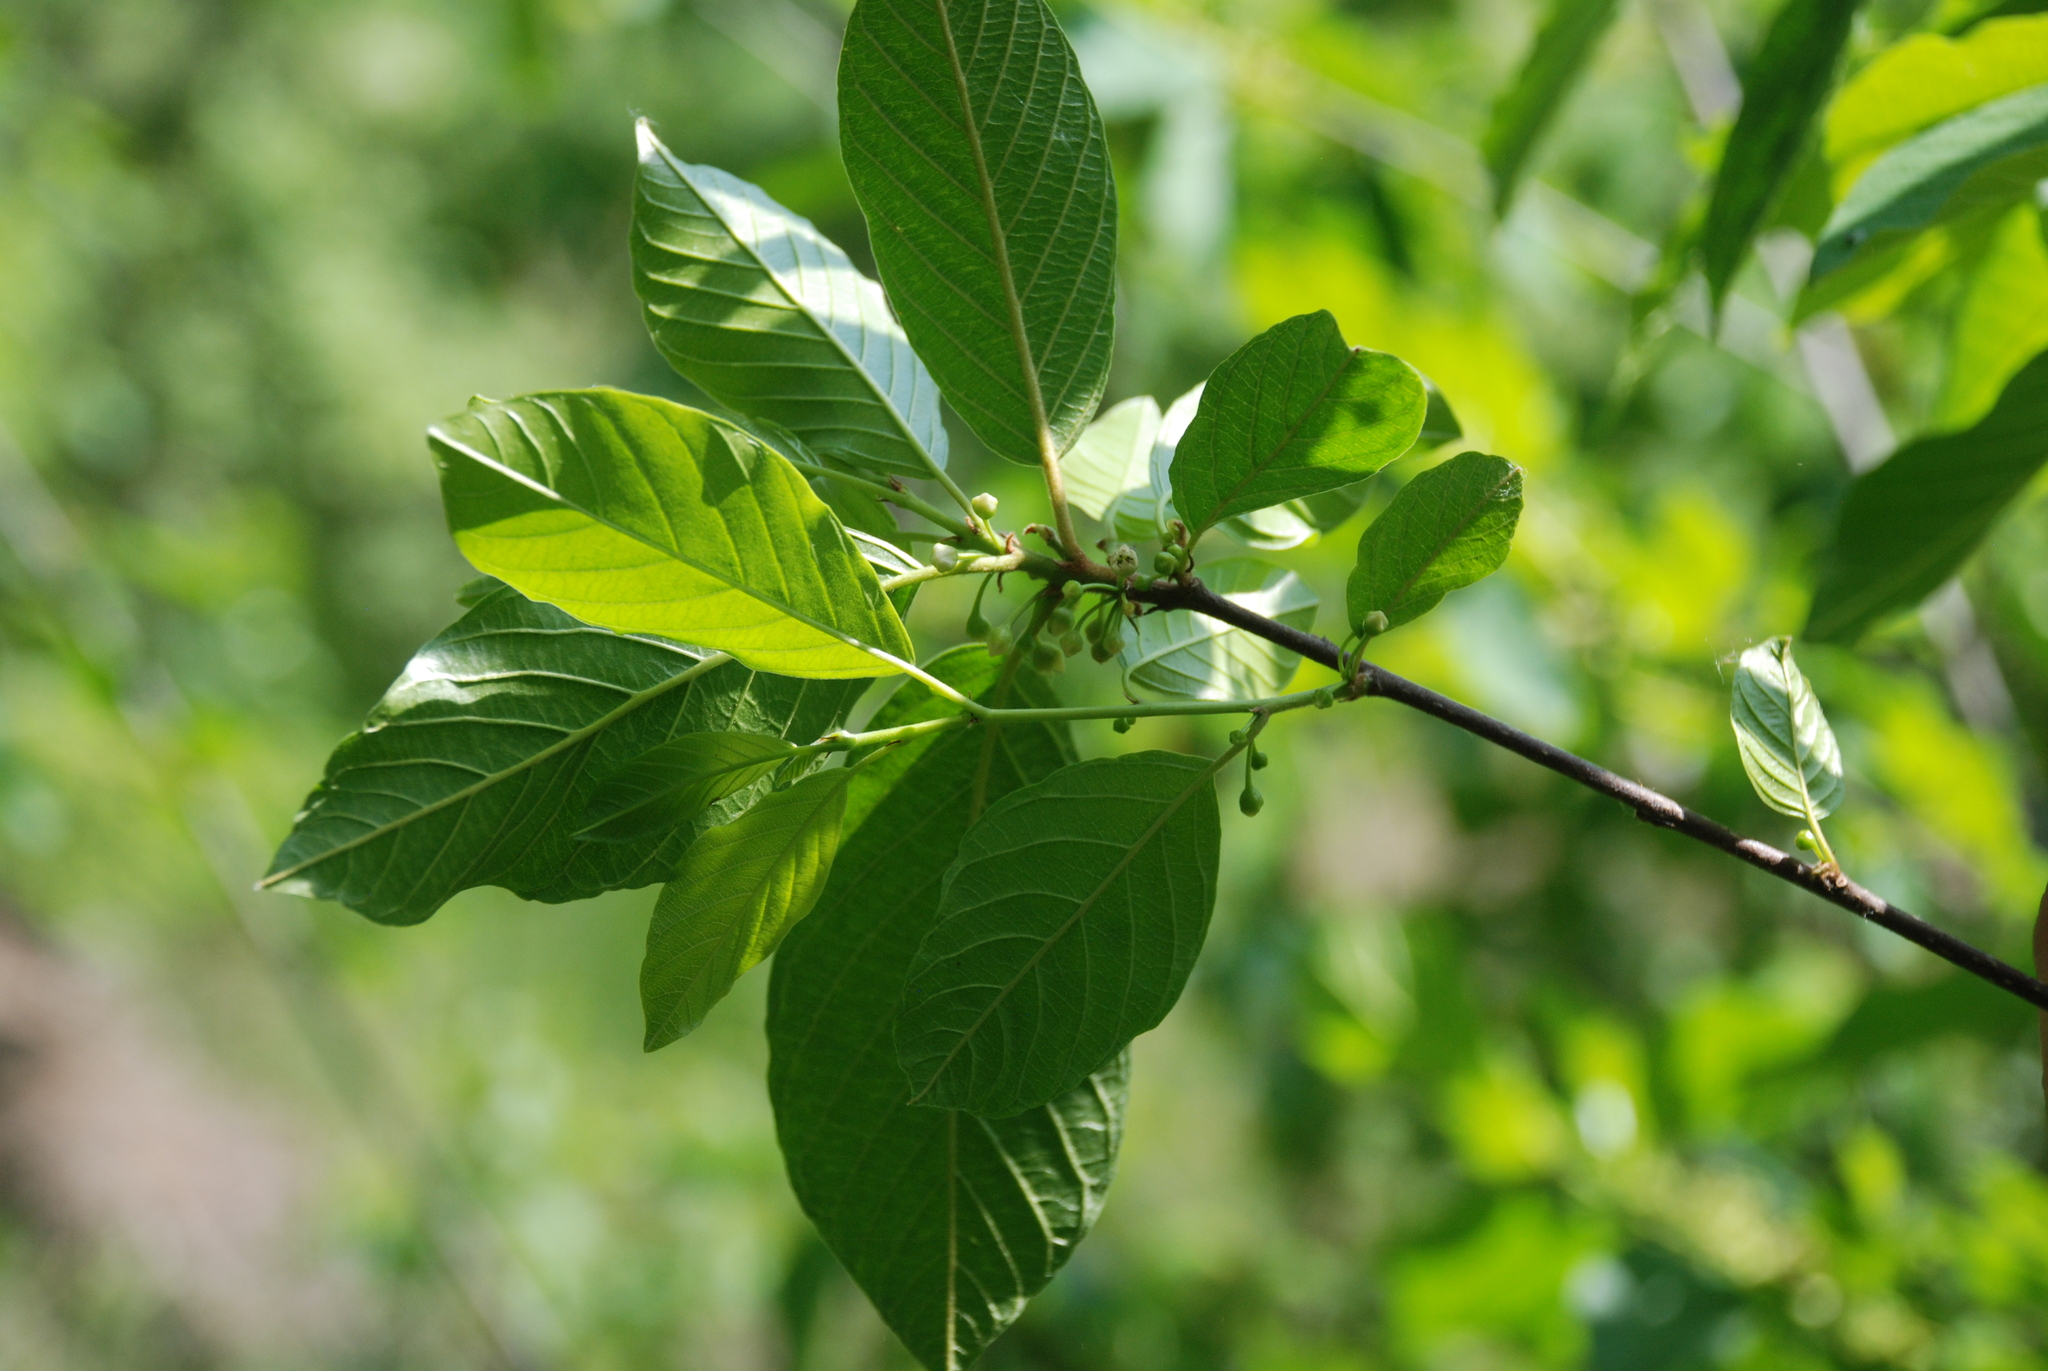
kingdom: Plantae
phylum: Tracheophyta
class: Magnoliopsida
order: Rosales
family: Rhamnaceae
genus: Frangula
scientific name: Frangula alnus
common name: Alder buckthorn
